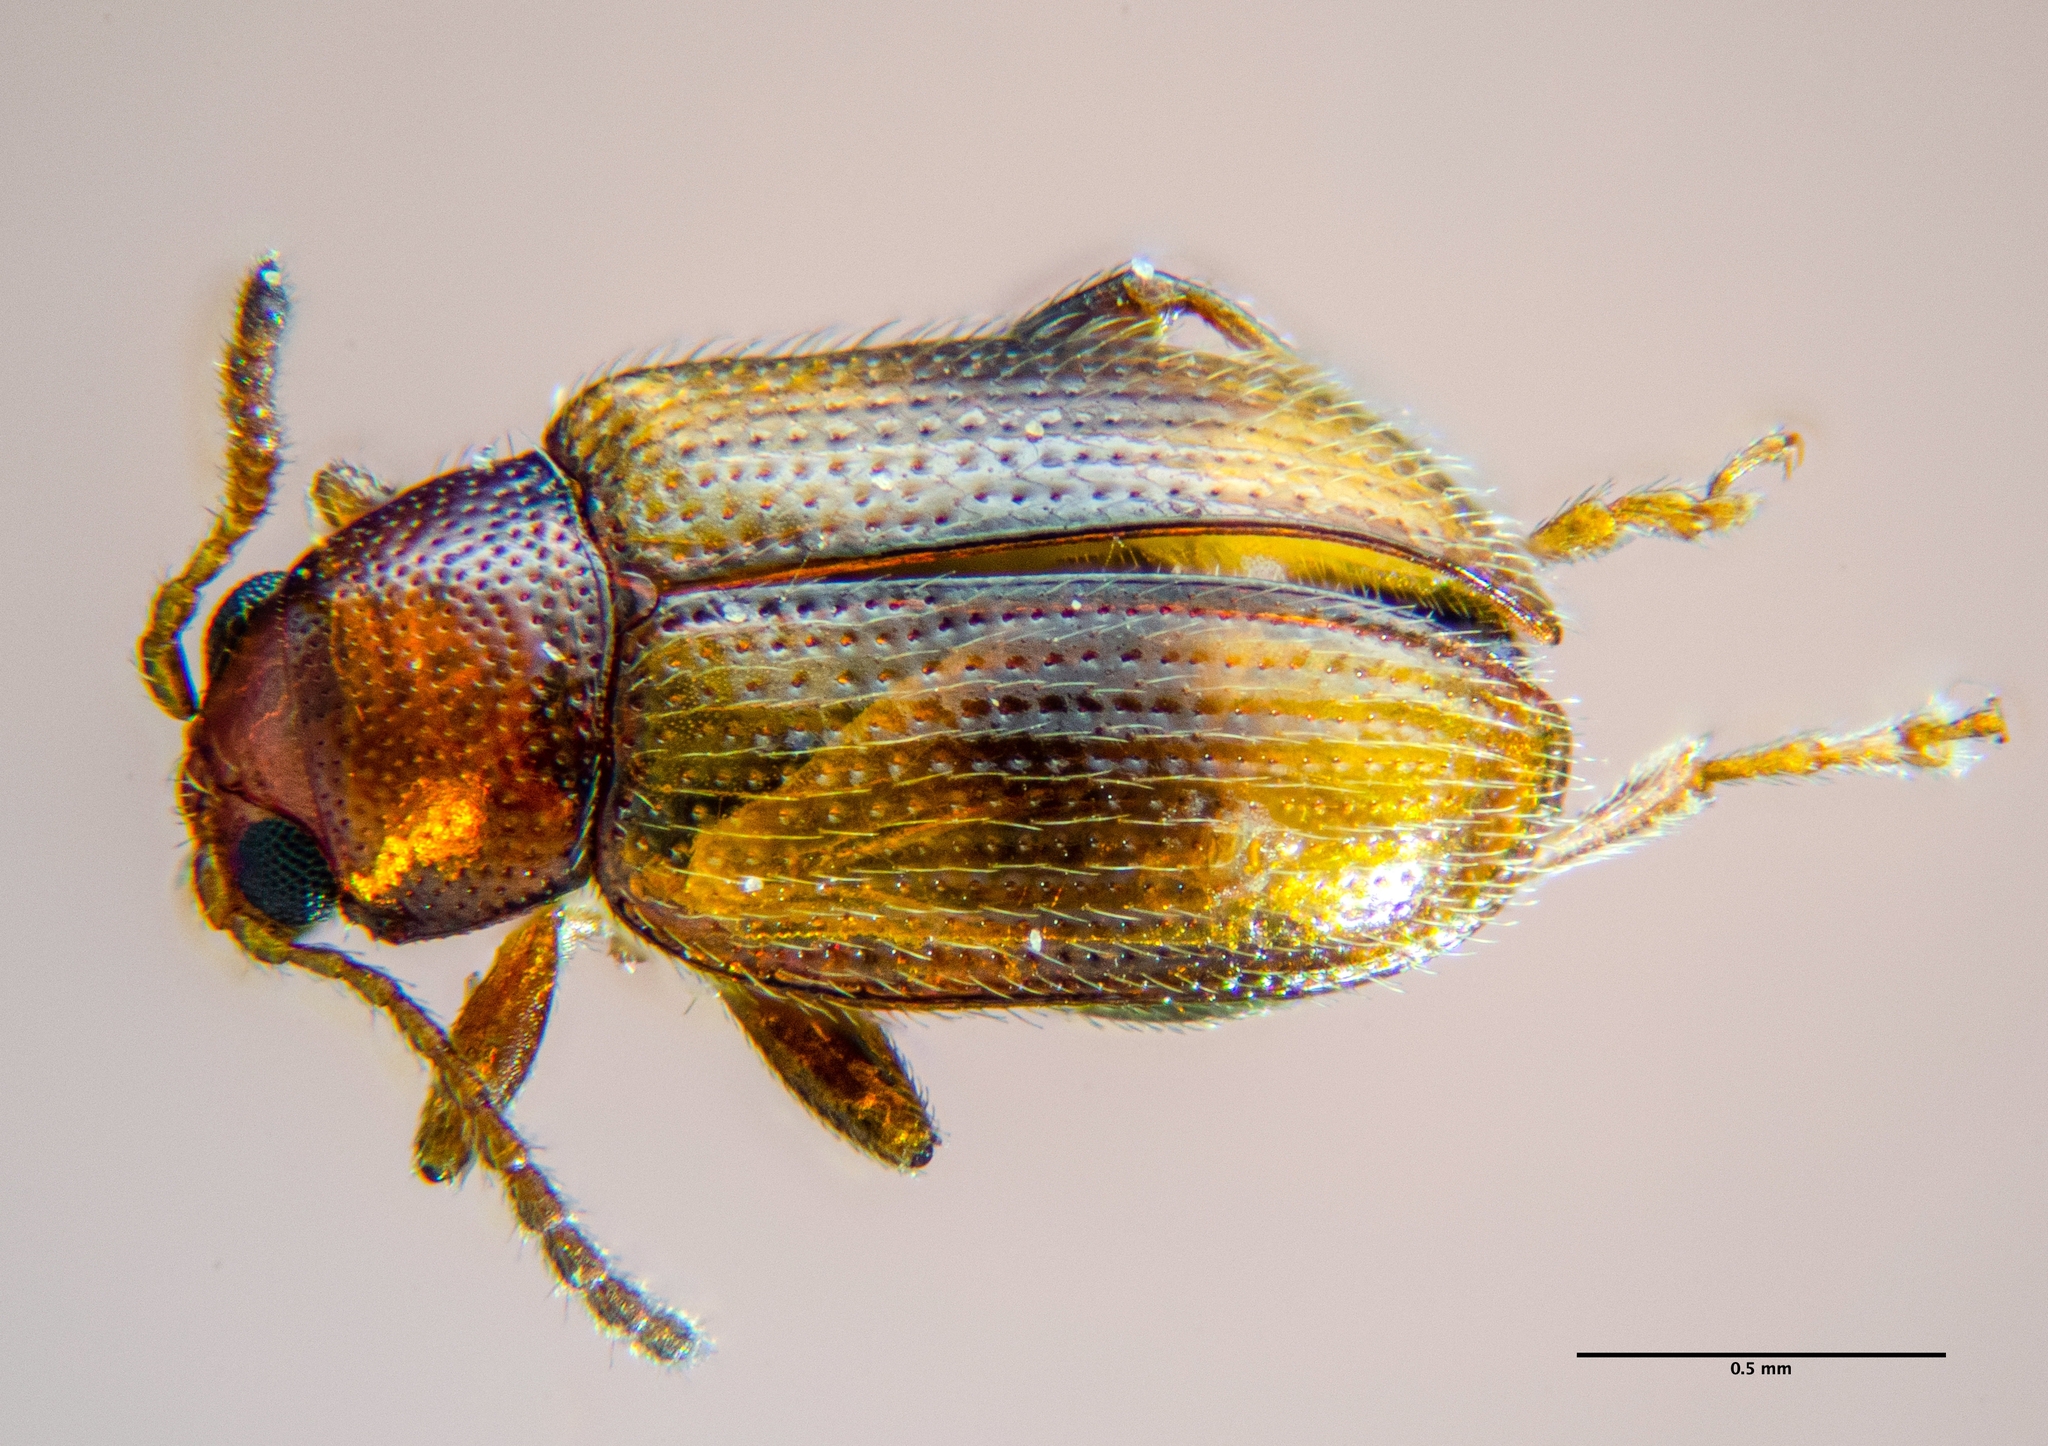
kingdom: Animalia
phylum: Arthropoda
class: Insecta
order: Coleoptera
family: Chrysomelidae
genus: Epitrix
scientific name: Epitrix hirtipennis
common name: Tobacco flea beetle
